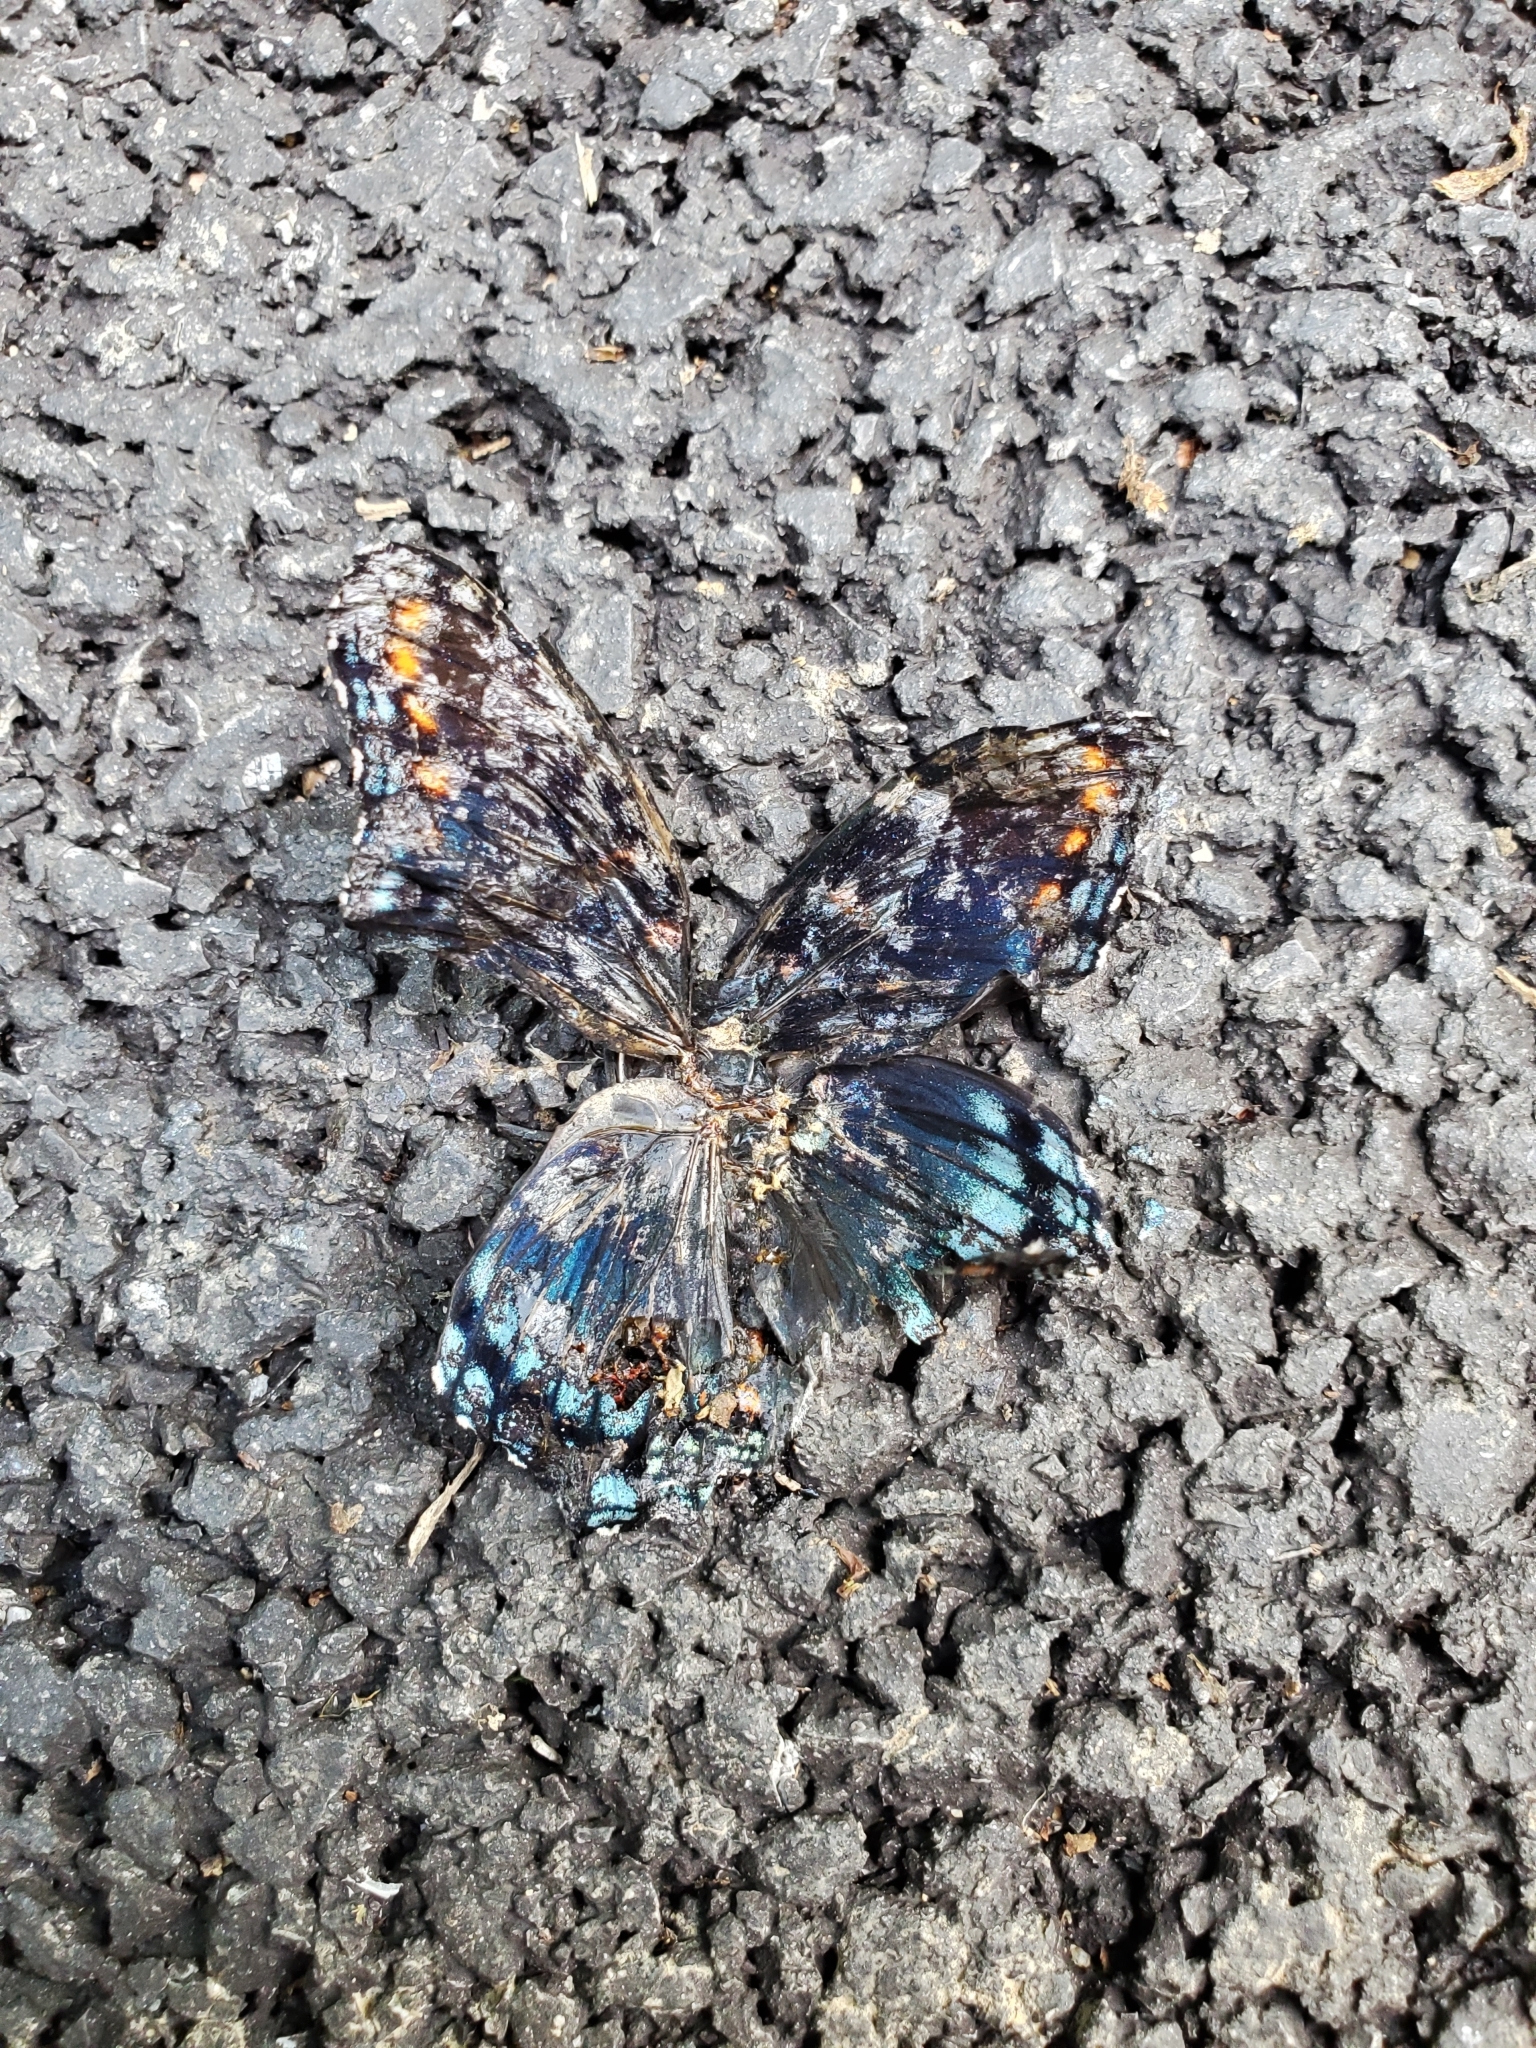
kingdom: Animalia
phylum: Arthropoda
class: Insecta
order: Lepidoptera
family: Nymphalidae
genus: Limenitis
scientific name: Limenitis arthemis
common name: Red-spotted admiral
